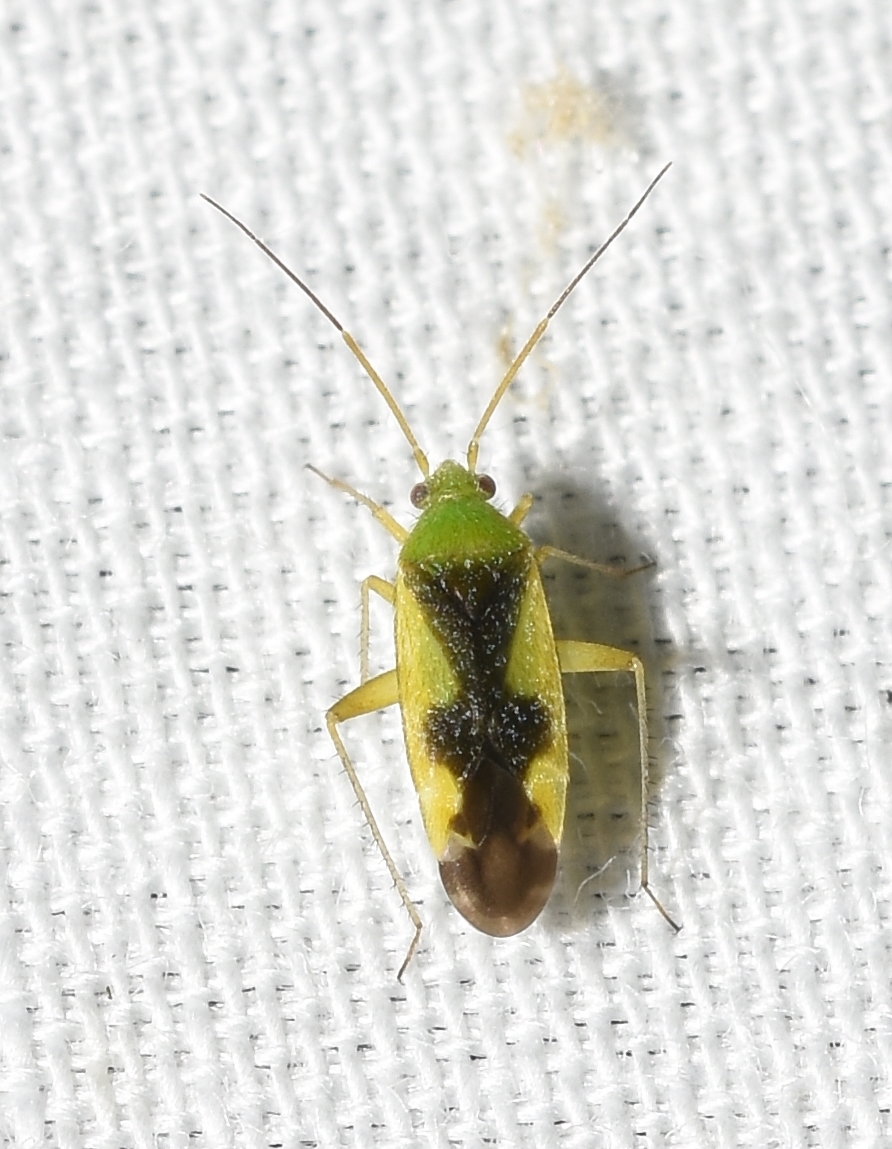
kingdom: Animalia
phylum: Arthropoda
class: Insecta
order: Hemiptera
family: Miridae
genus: Reuteroscopus
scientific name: Reuteroscopus ornatus
